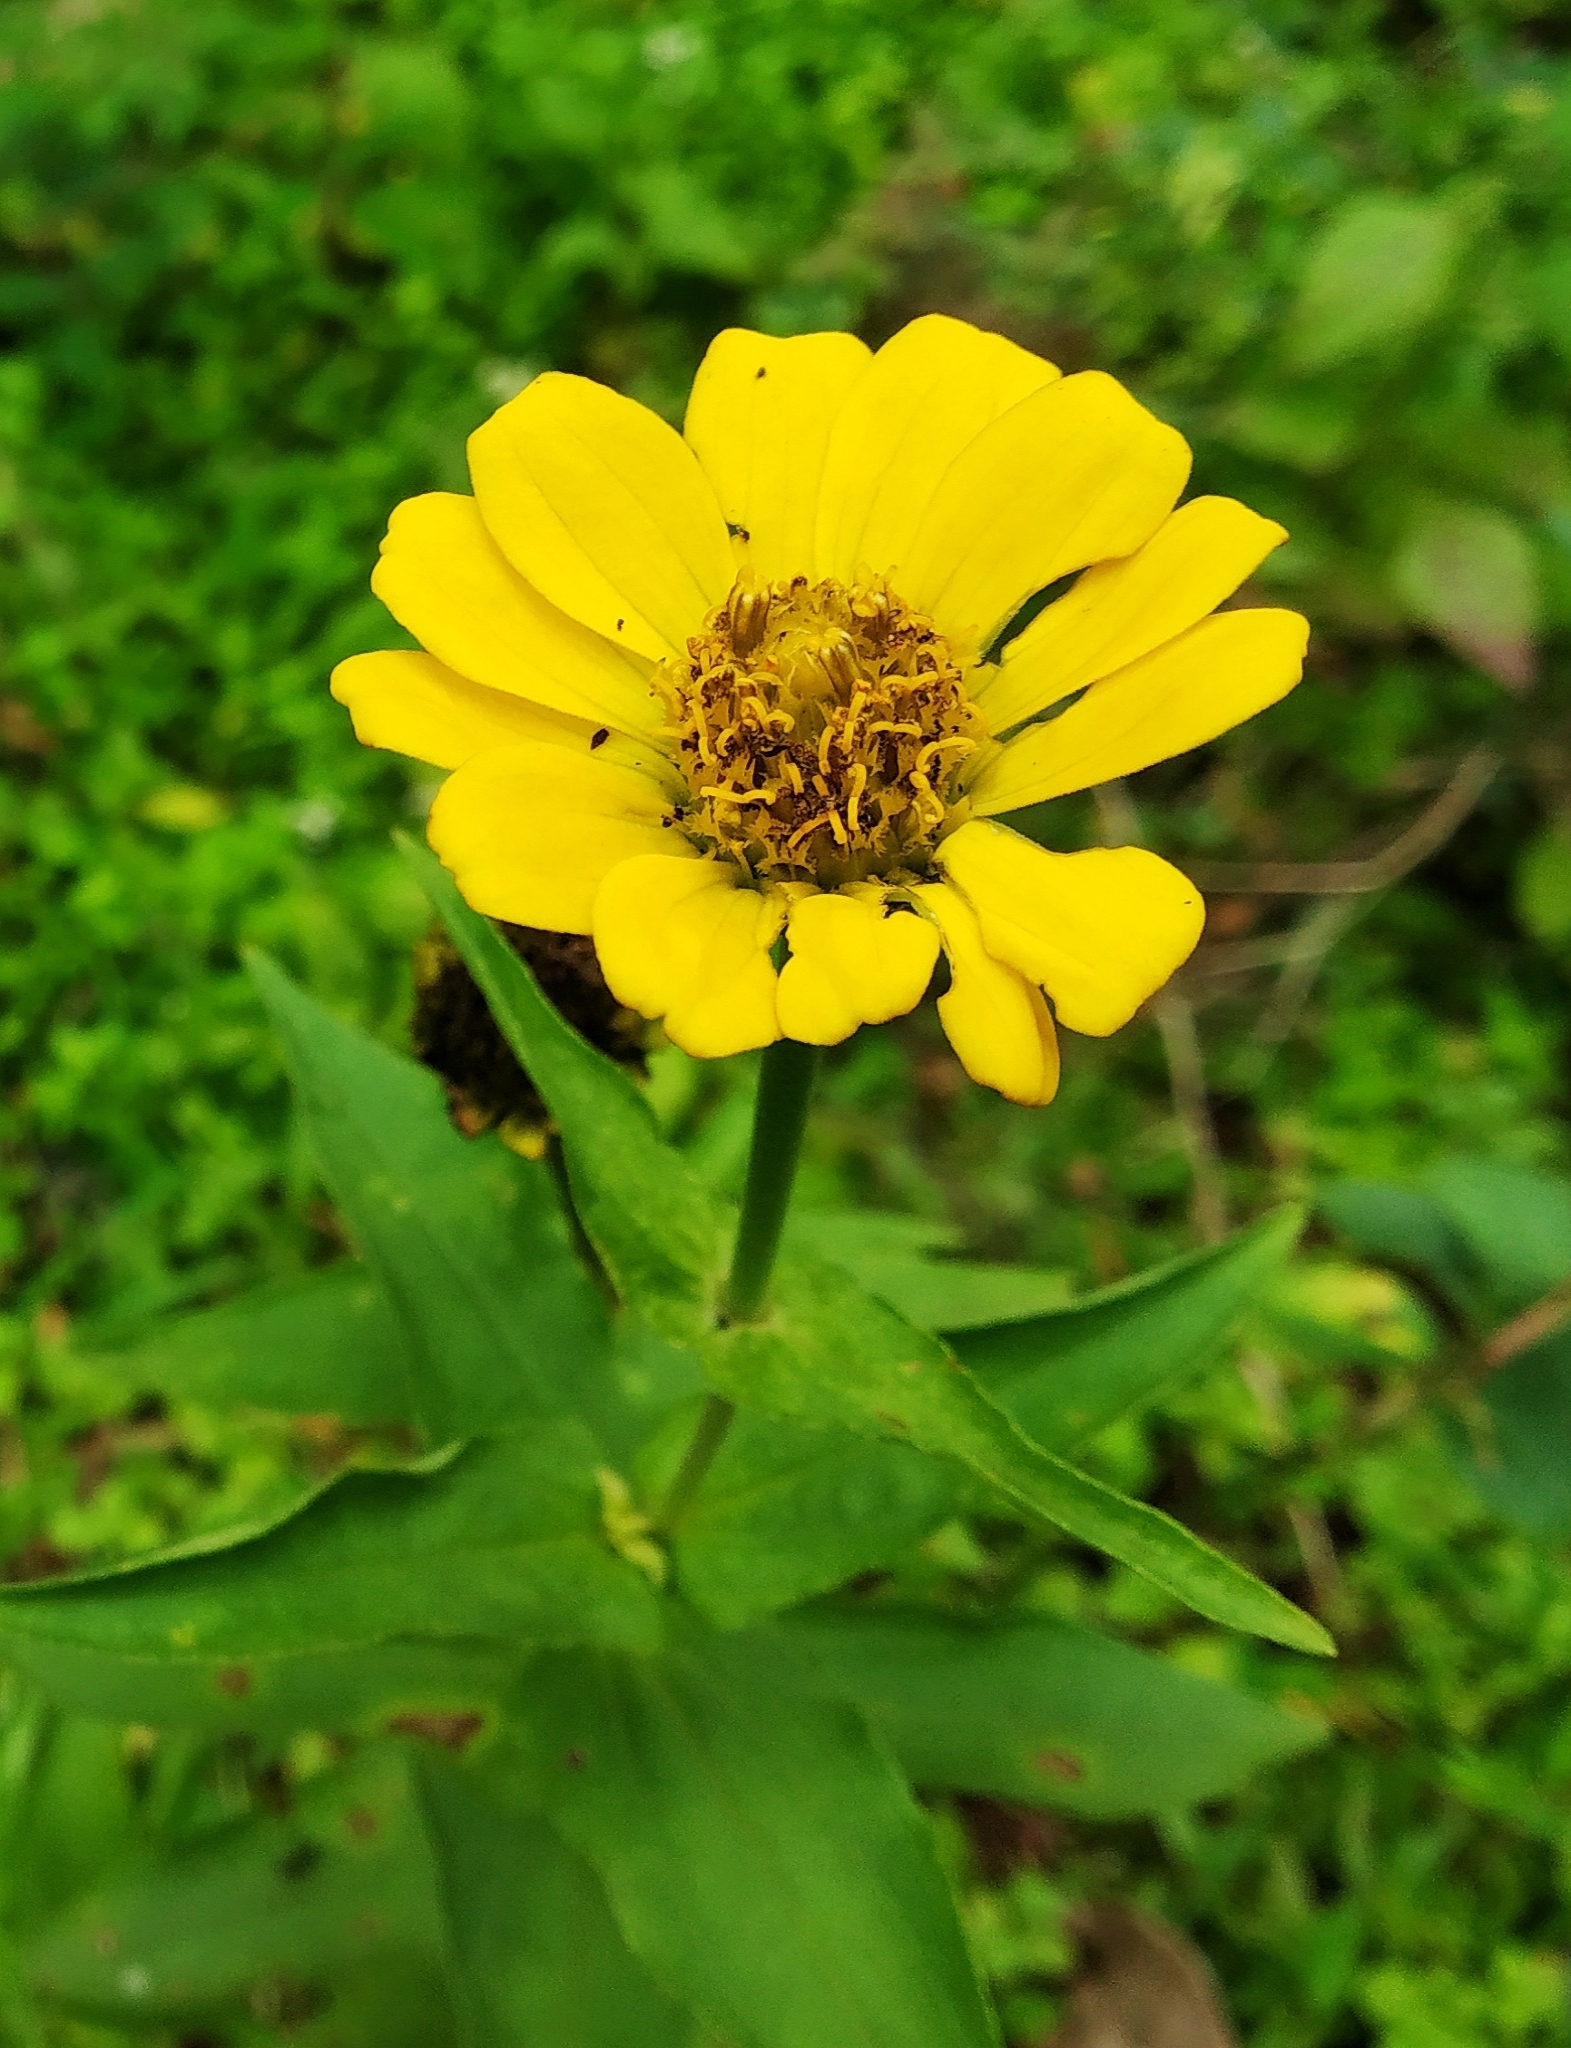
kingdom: Plantae
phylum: Tracheophyta
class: Magnoliopsida
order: Asterales
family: Asteraceae
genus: Zinnia
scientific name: Zinnia elegans
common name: Youth-and-age
